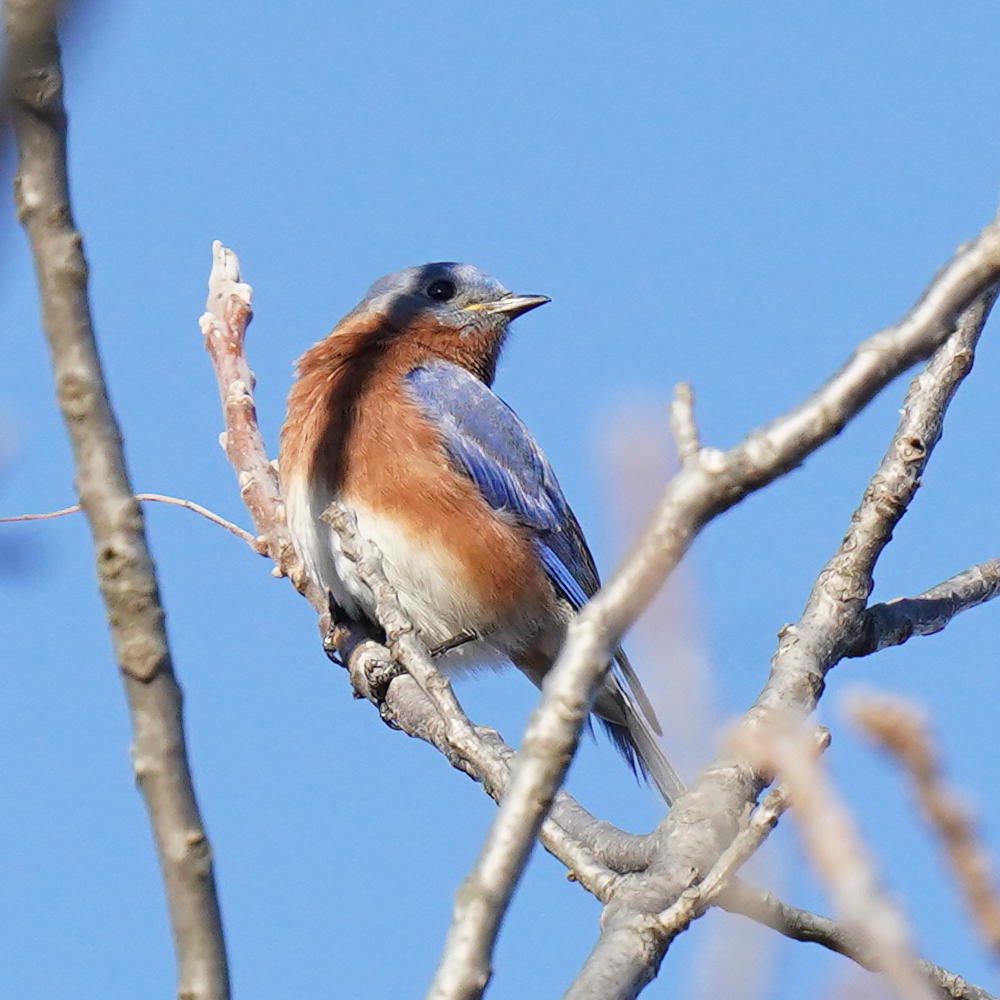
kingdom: Animalia
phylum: Chordata
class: Aves
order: Passeriformes
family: Turdidae
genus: Sialia
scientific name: Sialia sialis
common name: Eastern bluebird
